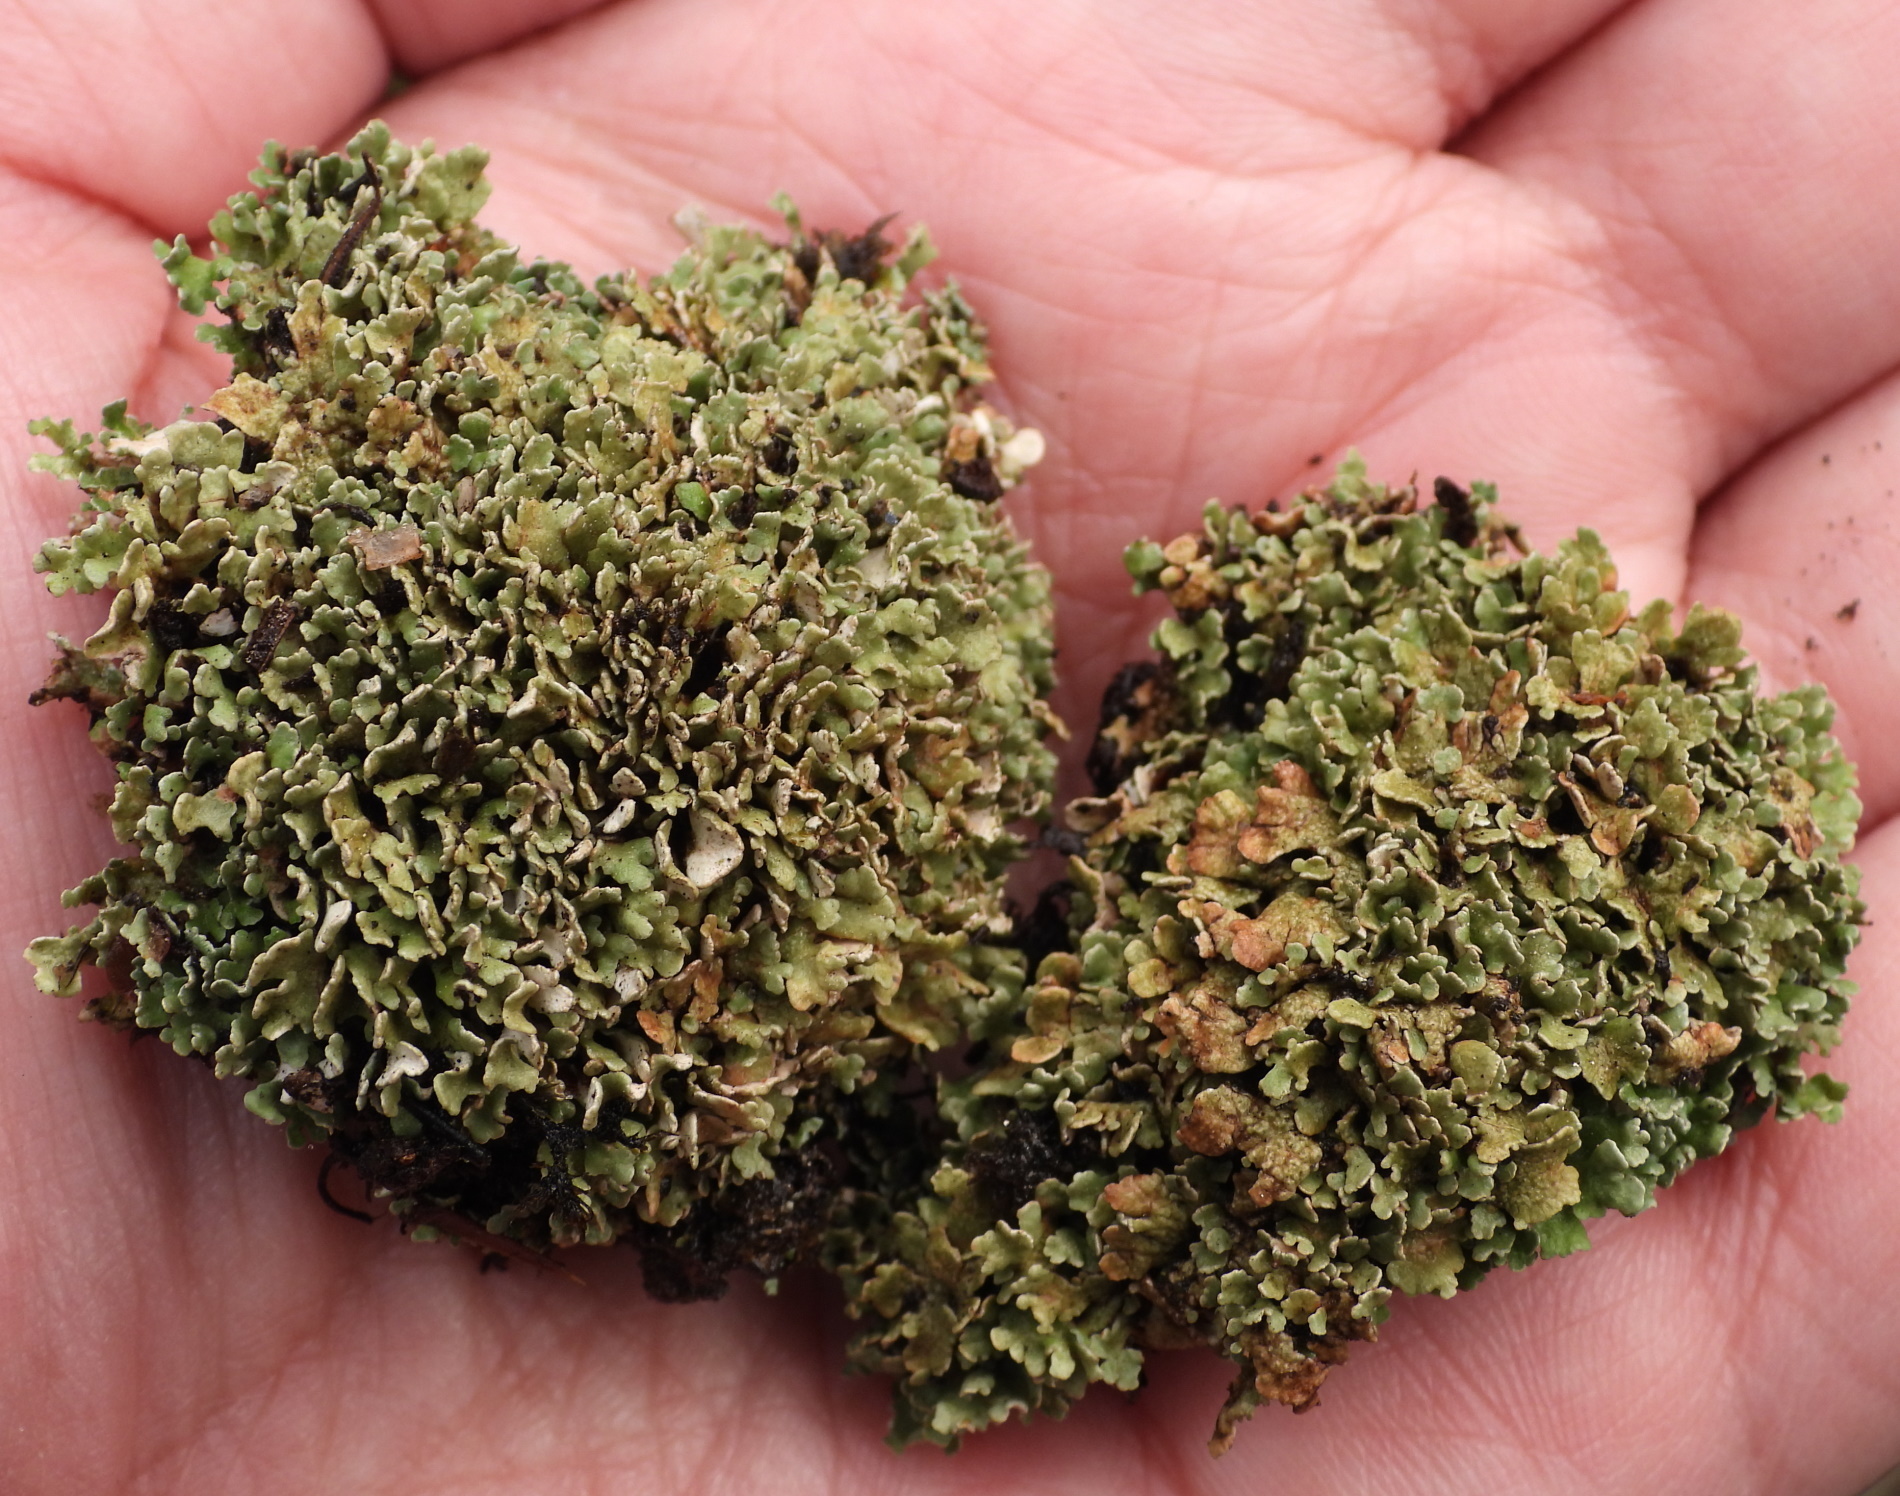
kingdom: Fungi
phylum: Ascomycota
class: Lecanoromycetes
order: Lecanorales
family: Cladoniaceae
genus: Cladonia
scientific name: Cladonia strepsilis
